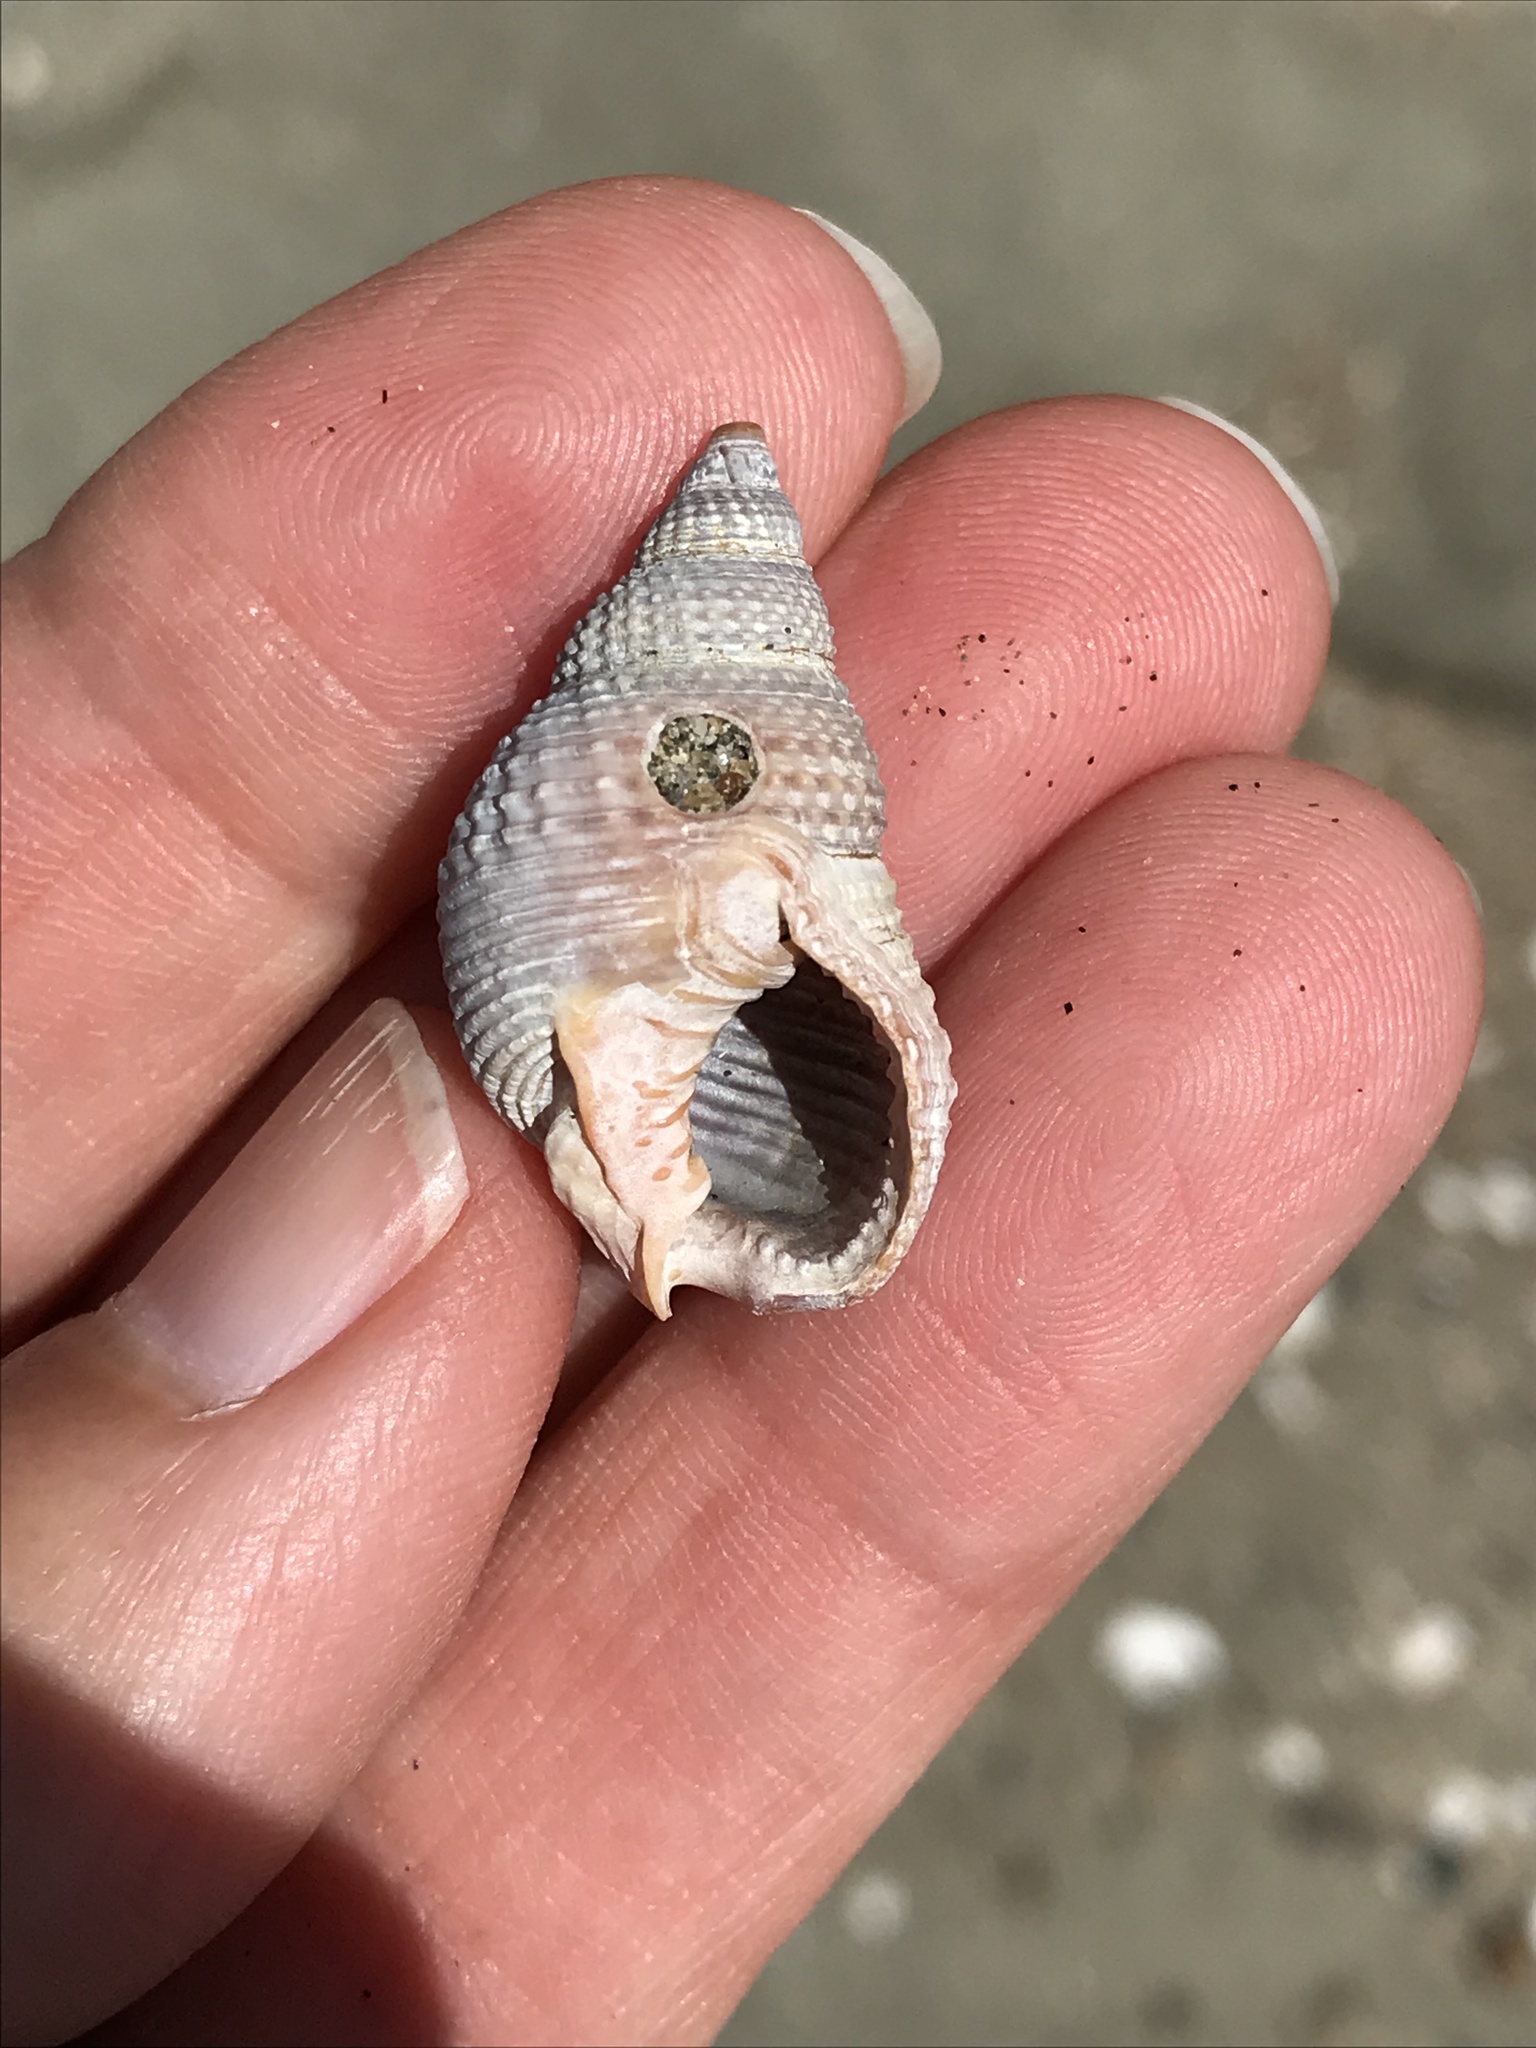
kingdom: Animalia
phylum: Mollusca
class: Gastropoda
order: Neogastropoda
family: Nassariidae
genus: Caesia
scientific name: Caesia fossata
